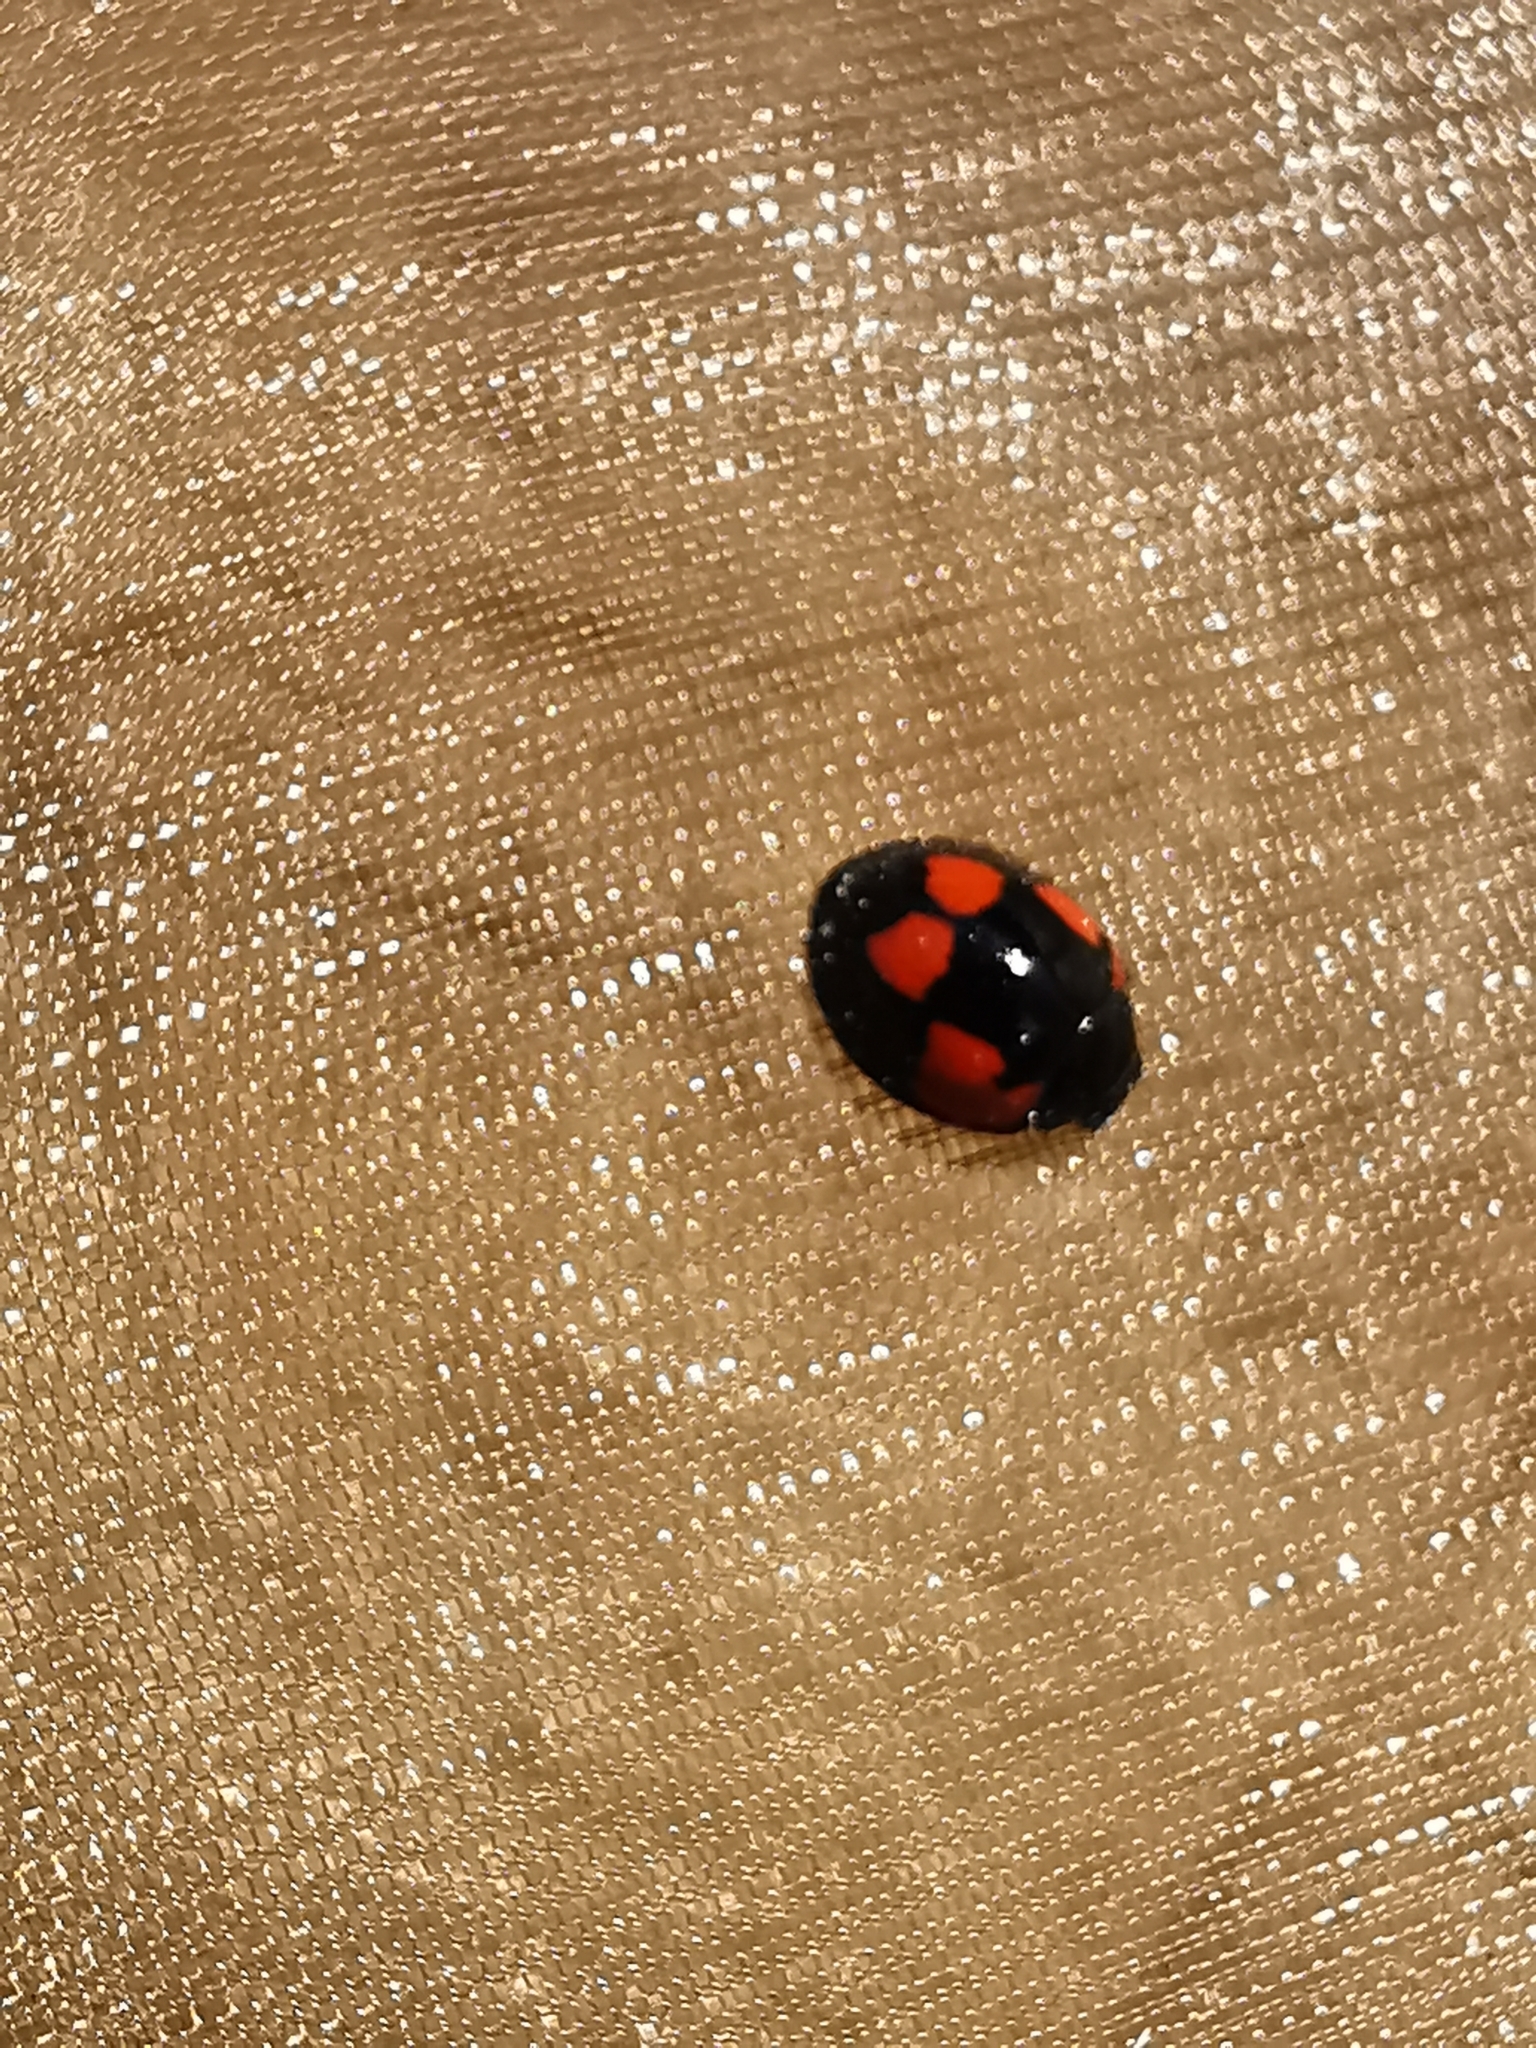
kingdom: Animalia
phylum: Arthropoda
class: Insecta
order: Coleoptera
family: Coccinellidae
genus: Brumus
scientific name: Brumus quadripustulatus
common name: Ladybird beetle
